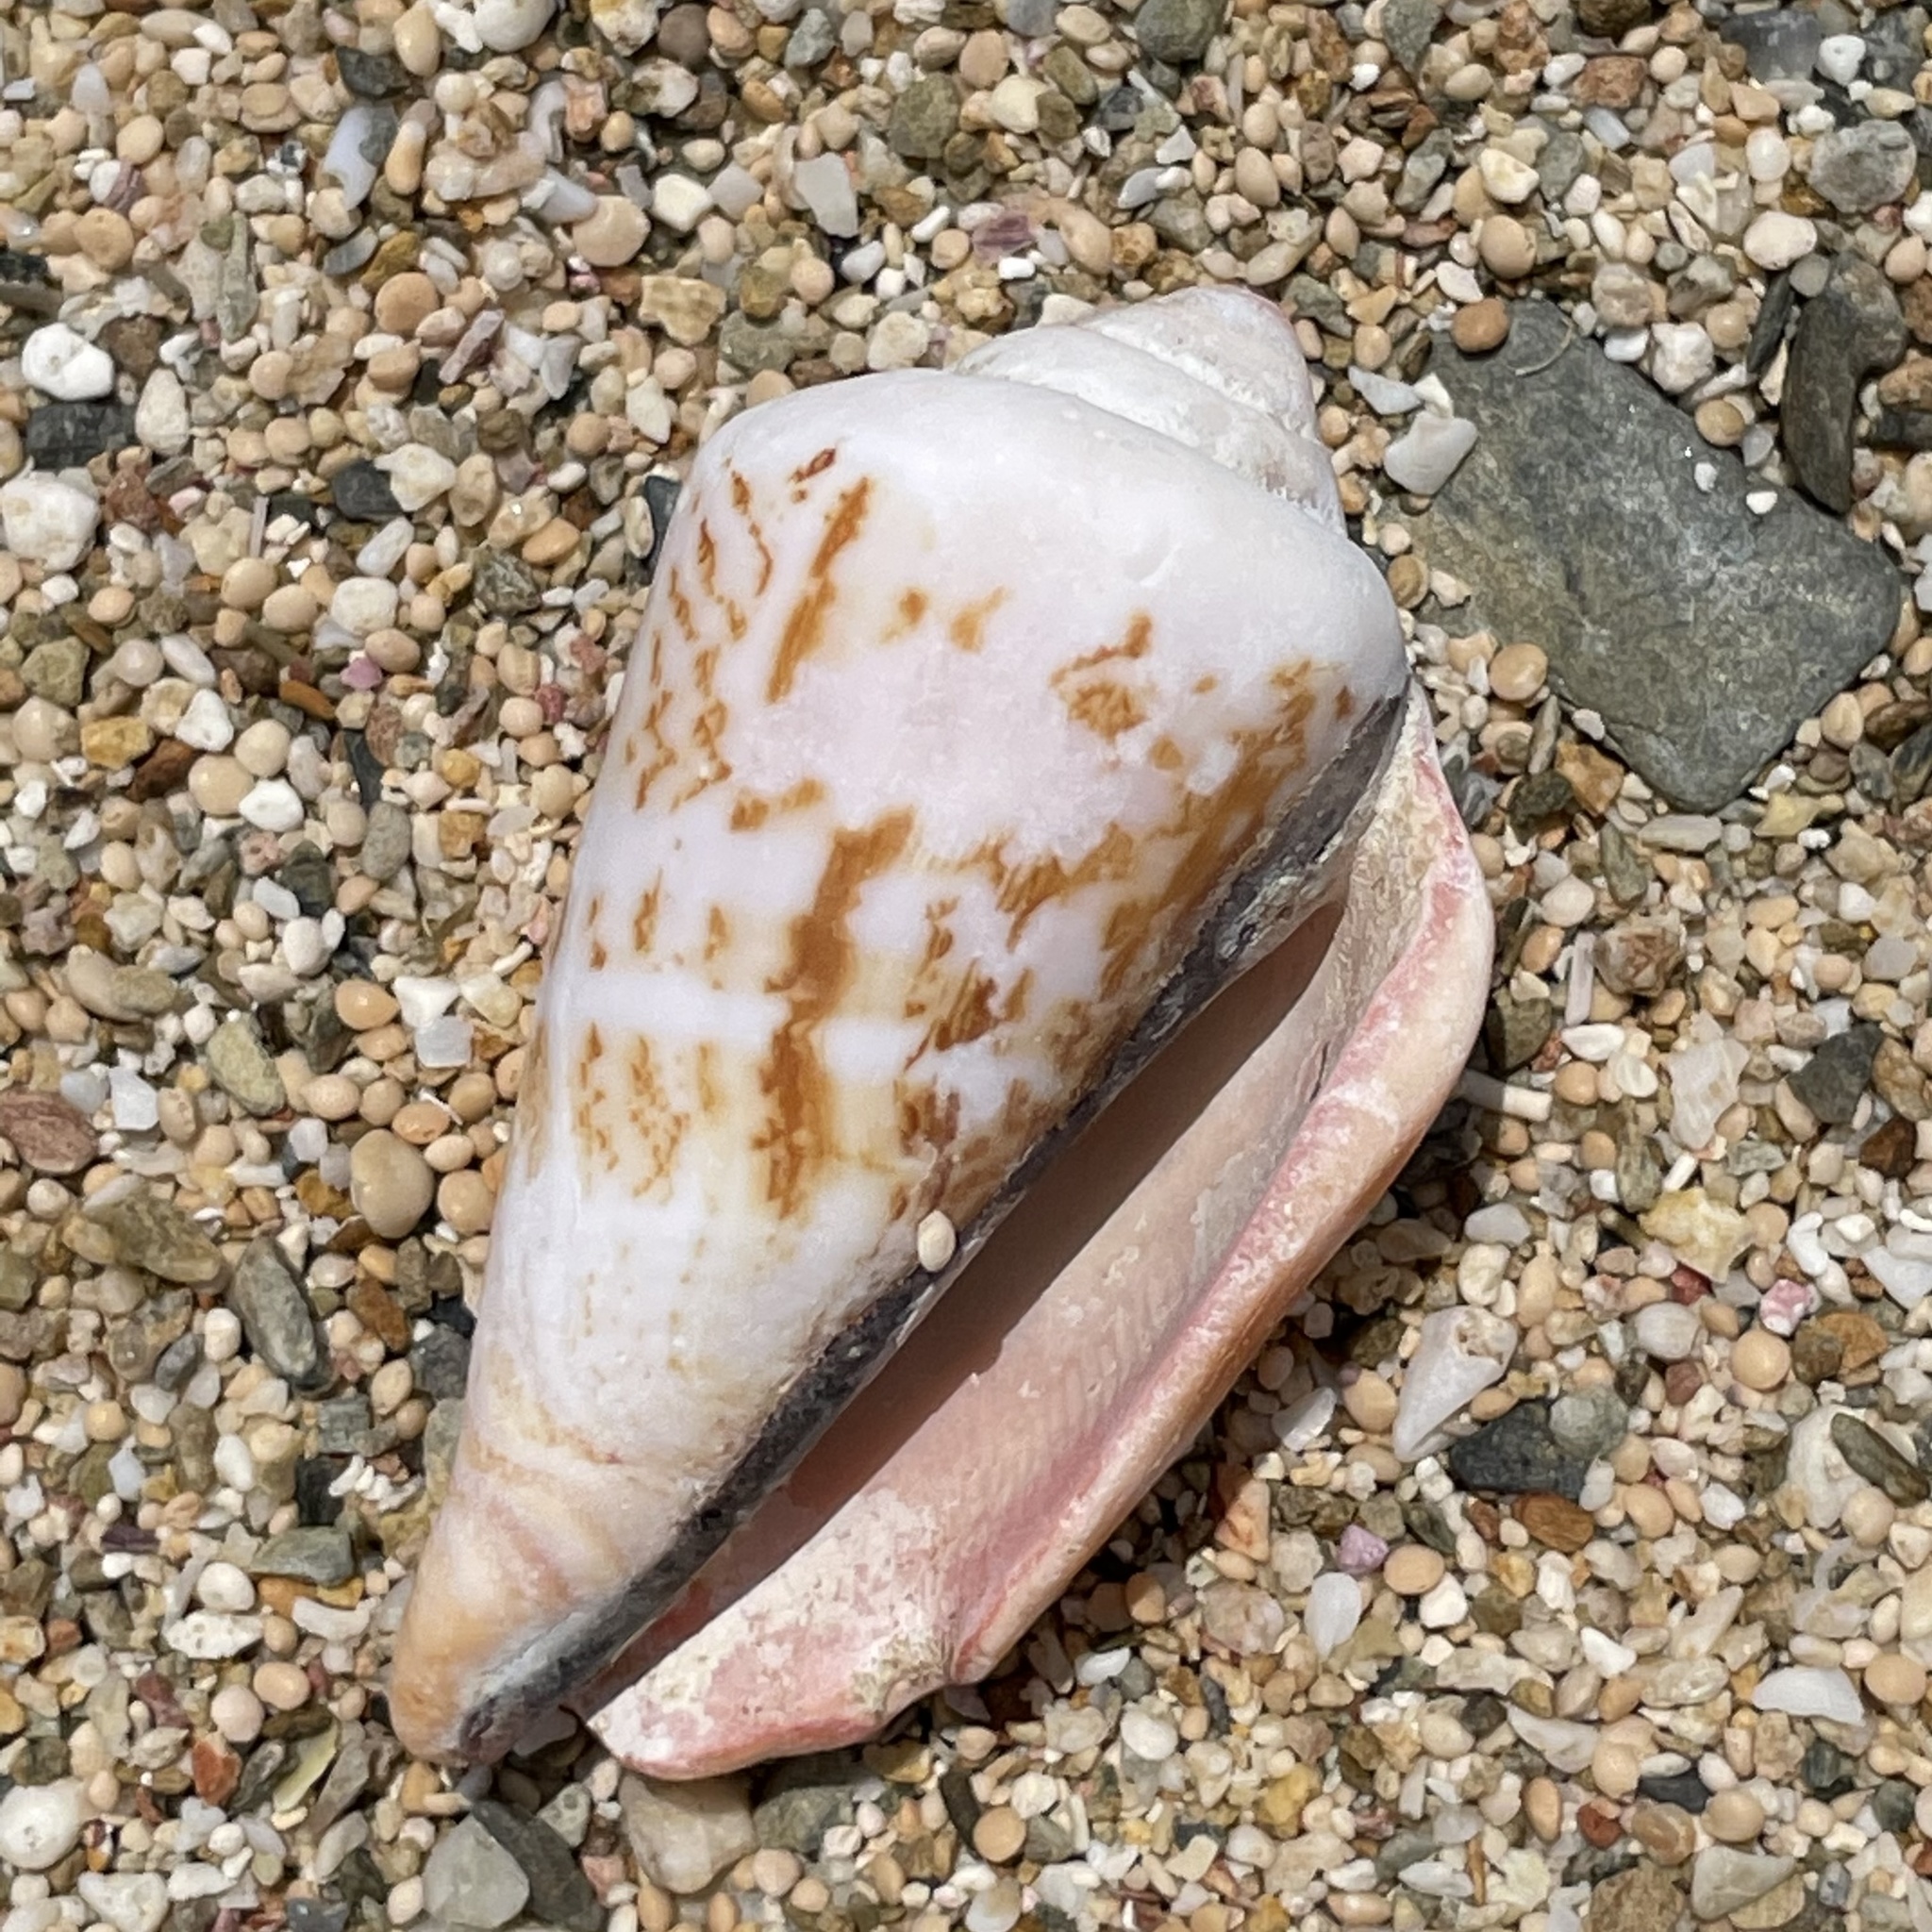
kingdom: Animalia
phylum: Mollusca
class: Gastropoda
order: Littorinimorpha
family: Strombidae
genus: Conomurex
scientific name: Conomurex luhuanus
